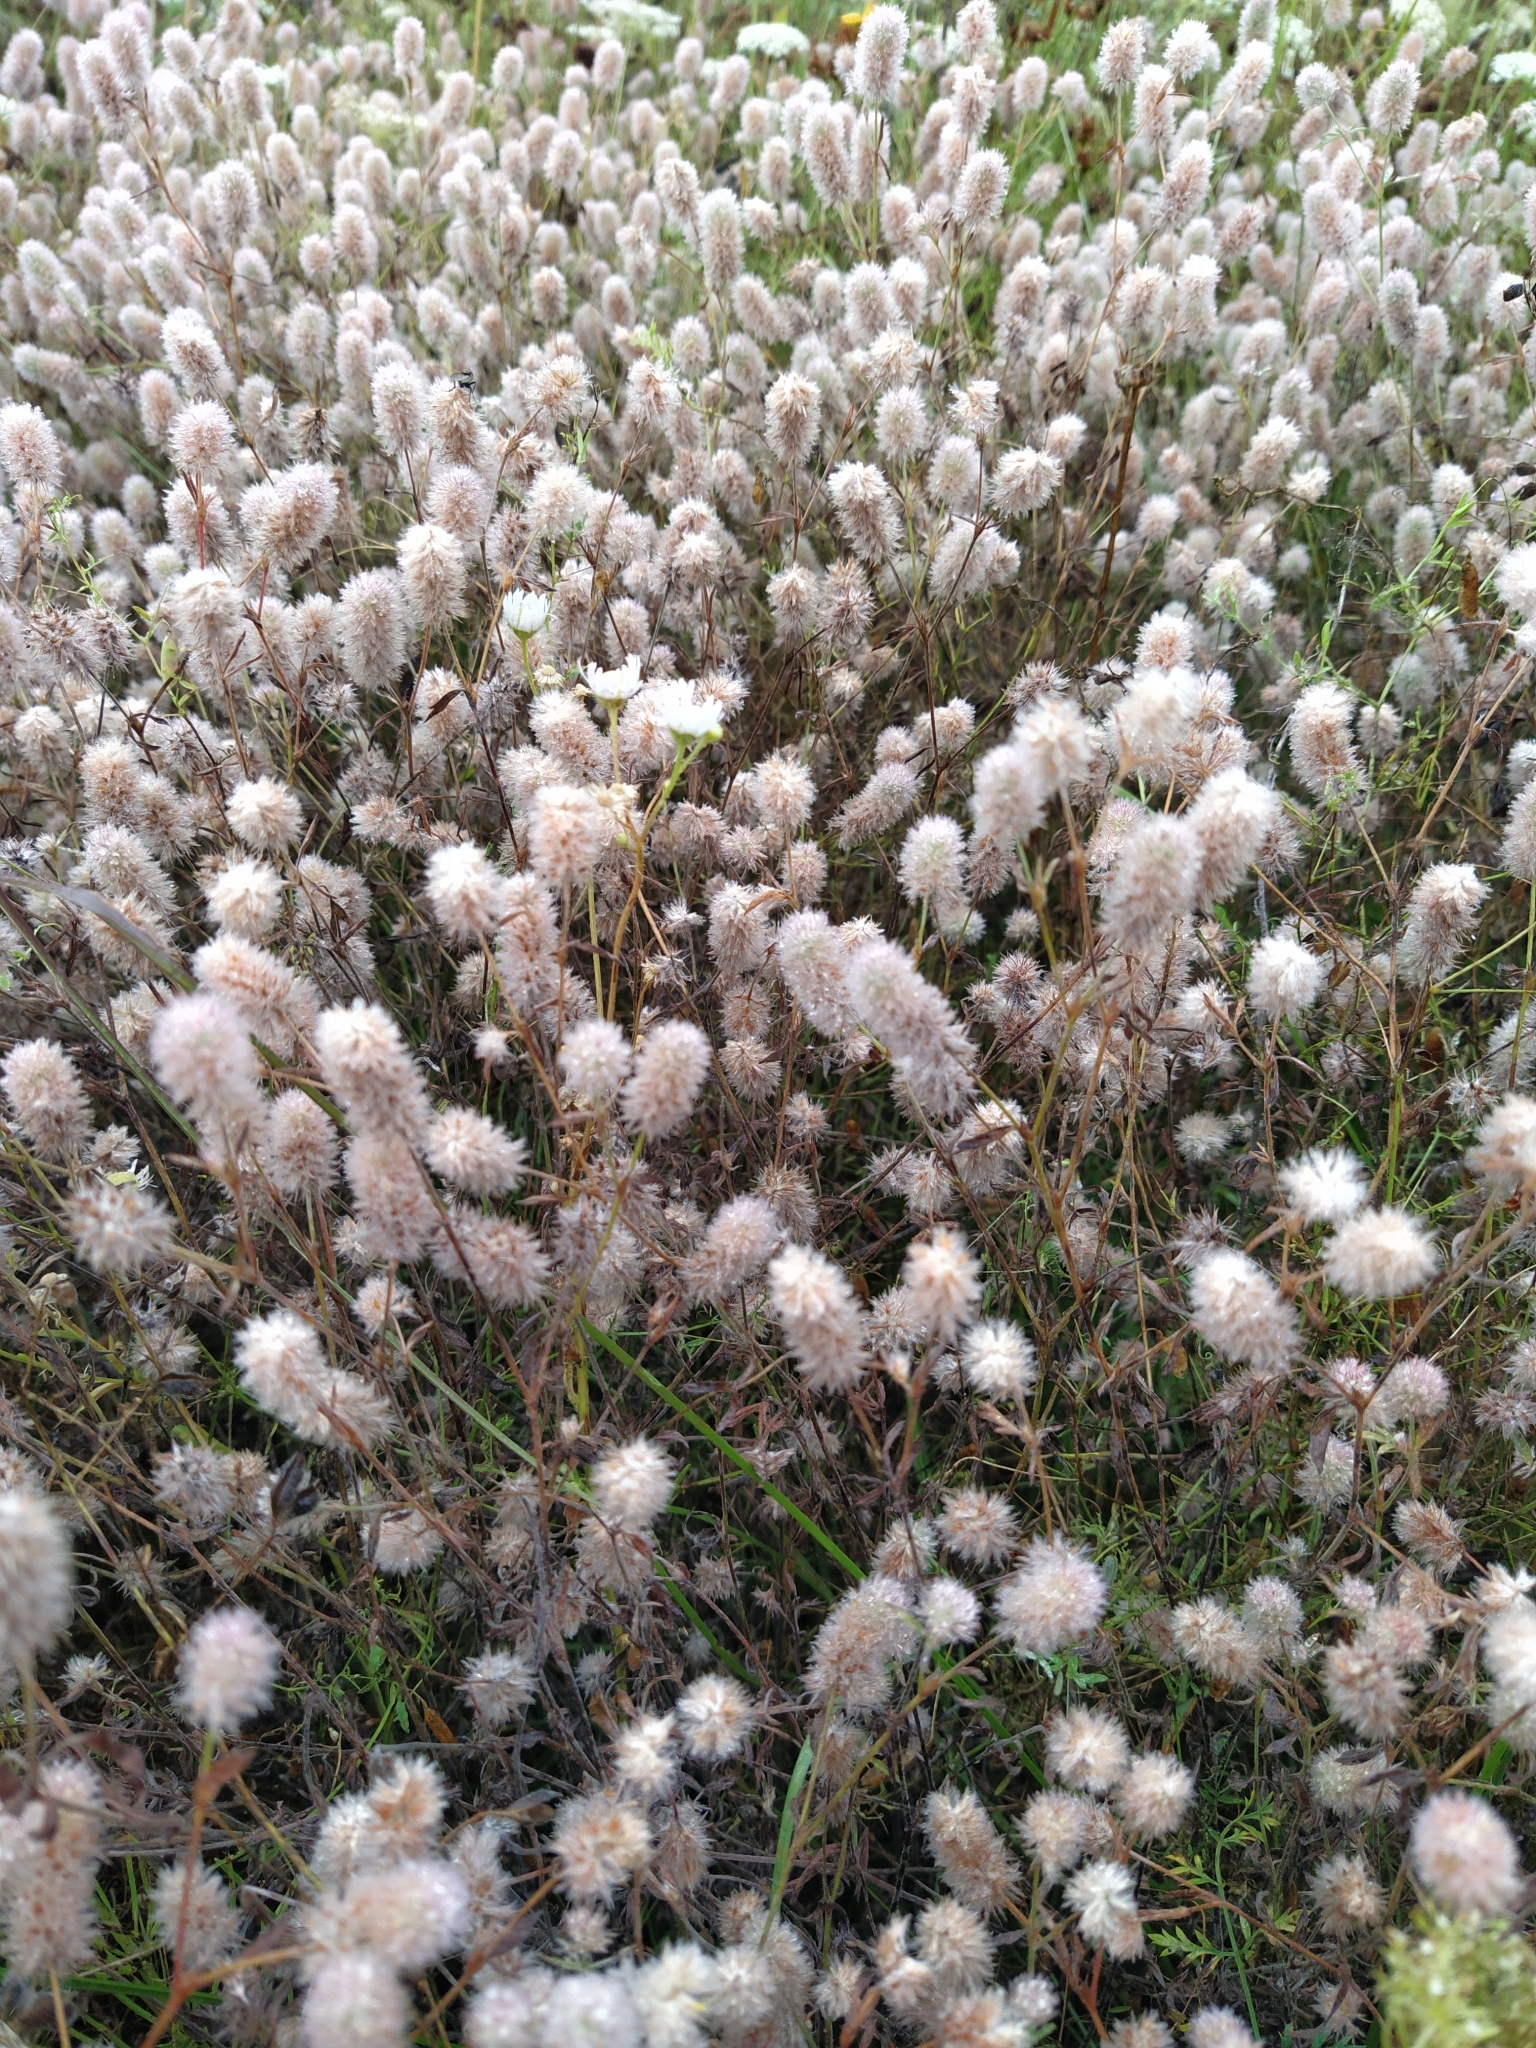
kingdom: Plantae
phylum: Tracheophyta
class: Magnoliopsida
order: Fabales
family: Fabaceae
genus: Trifolium
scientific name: Trifolium arvense
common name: Hare's-foot clover
